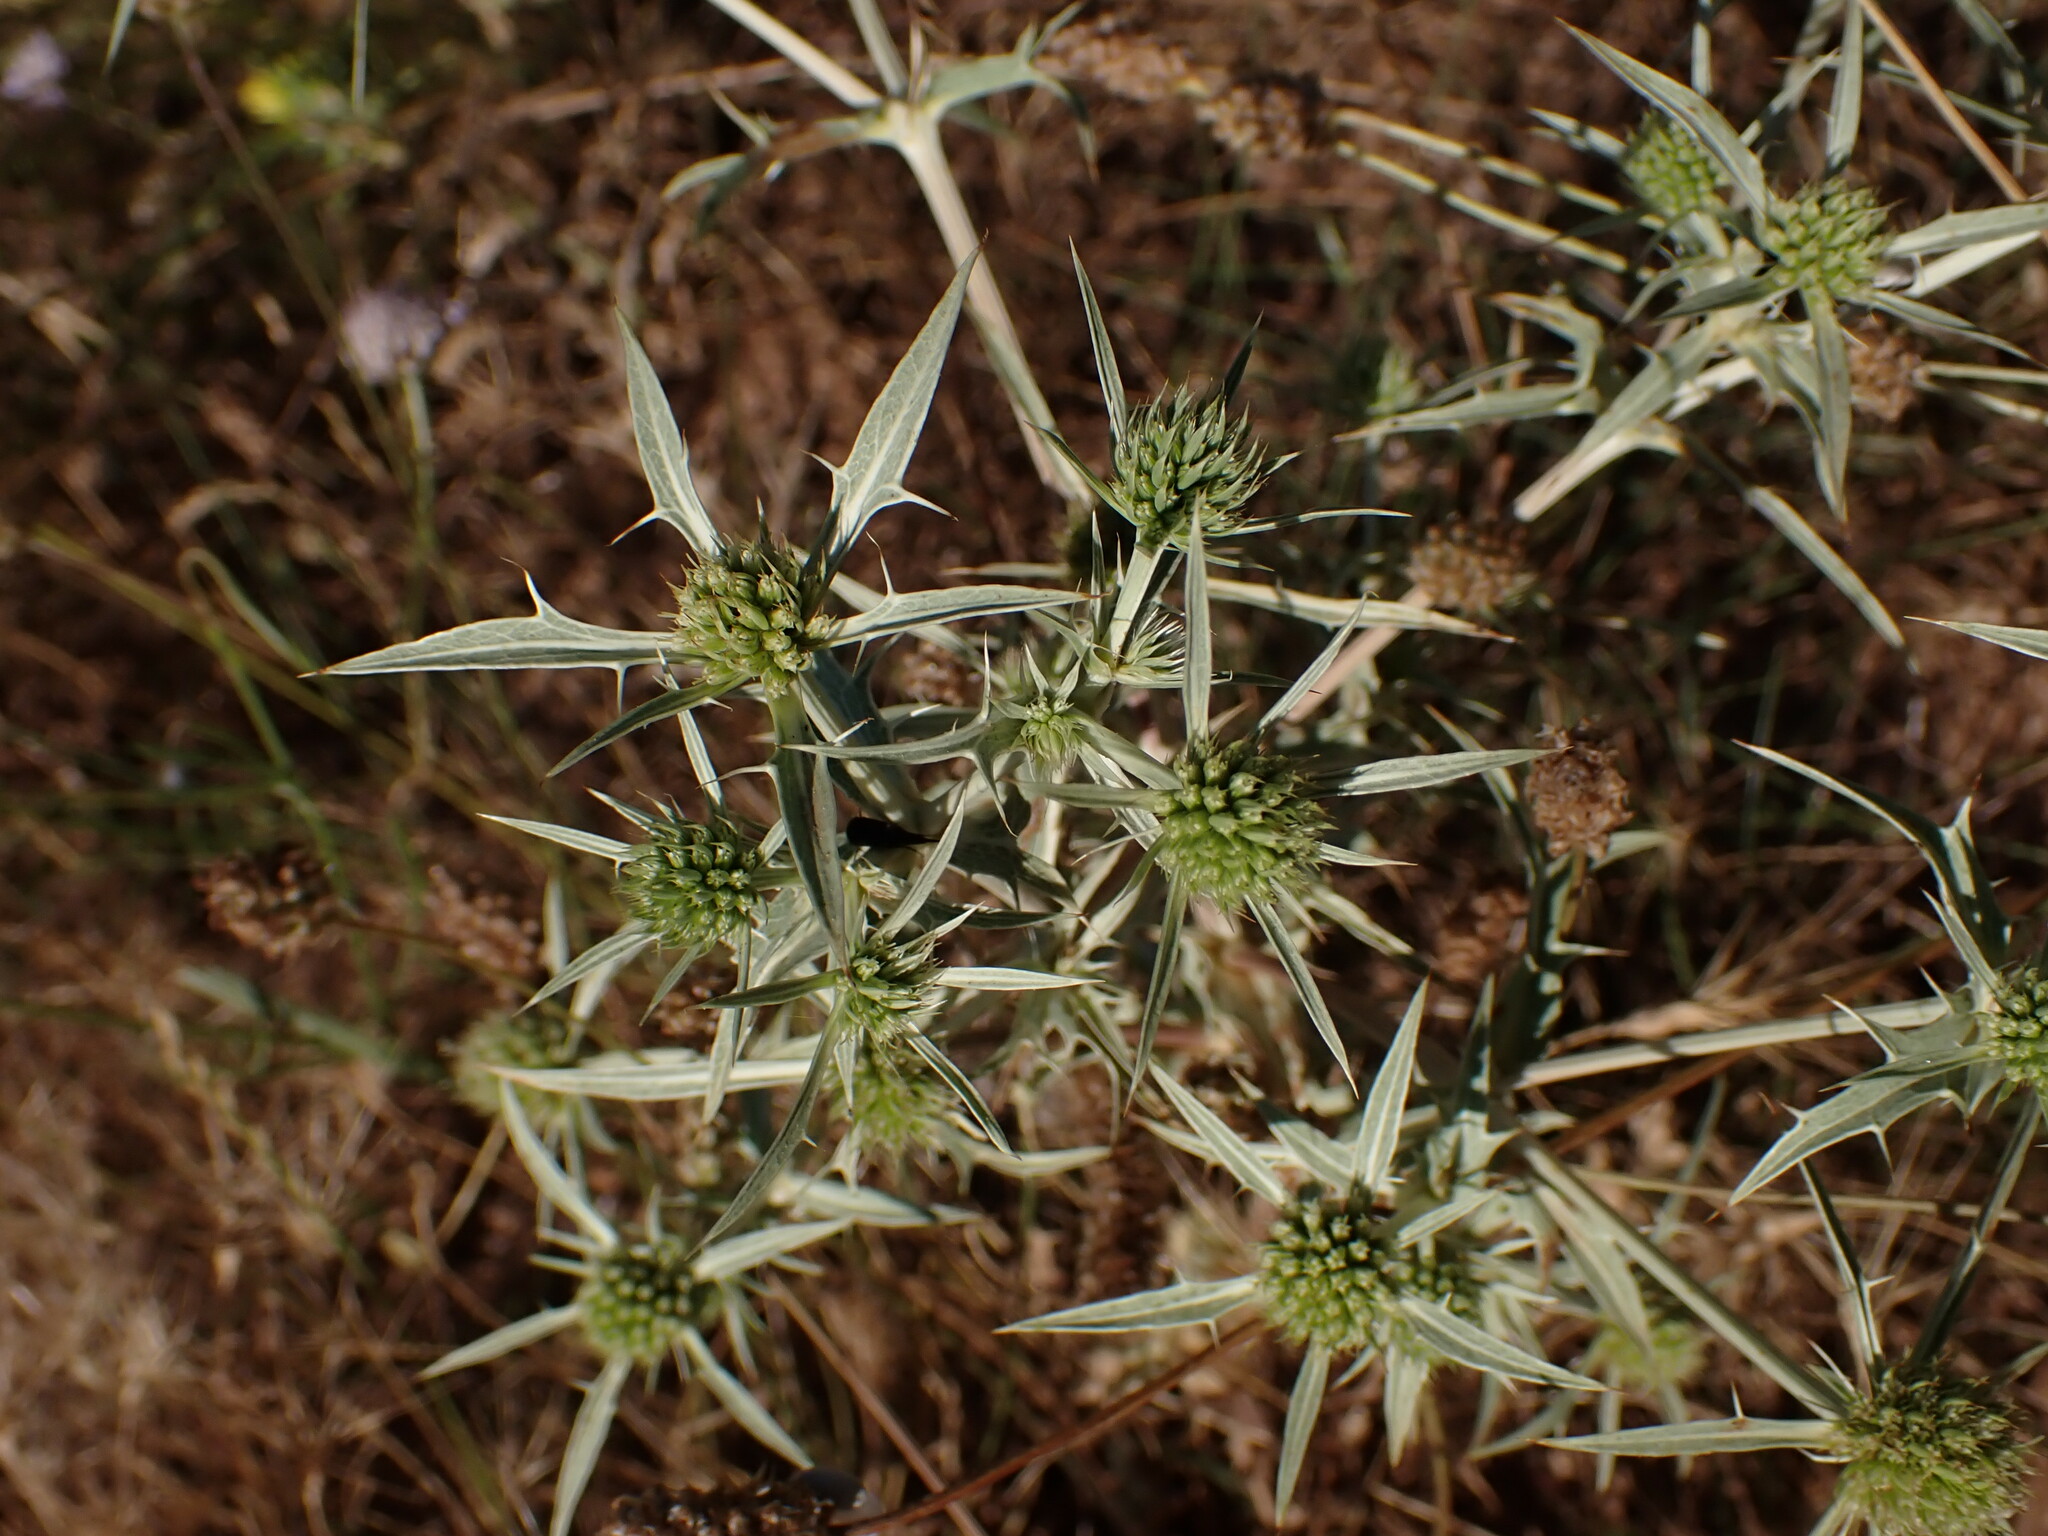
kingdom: Plantae
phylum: Tracheophyta
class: Magnoliopsida
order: Apiales
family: Apiaceae
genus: Eryngium
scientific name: Eryngium campestre
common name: Field eryngo
